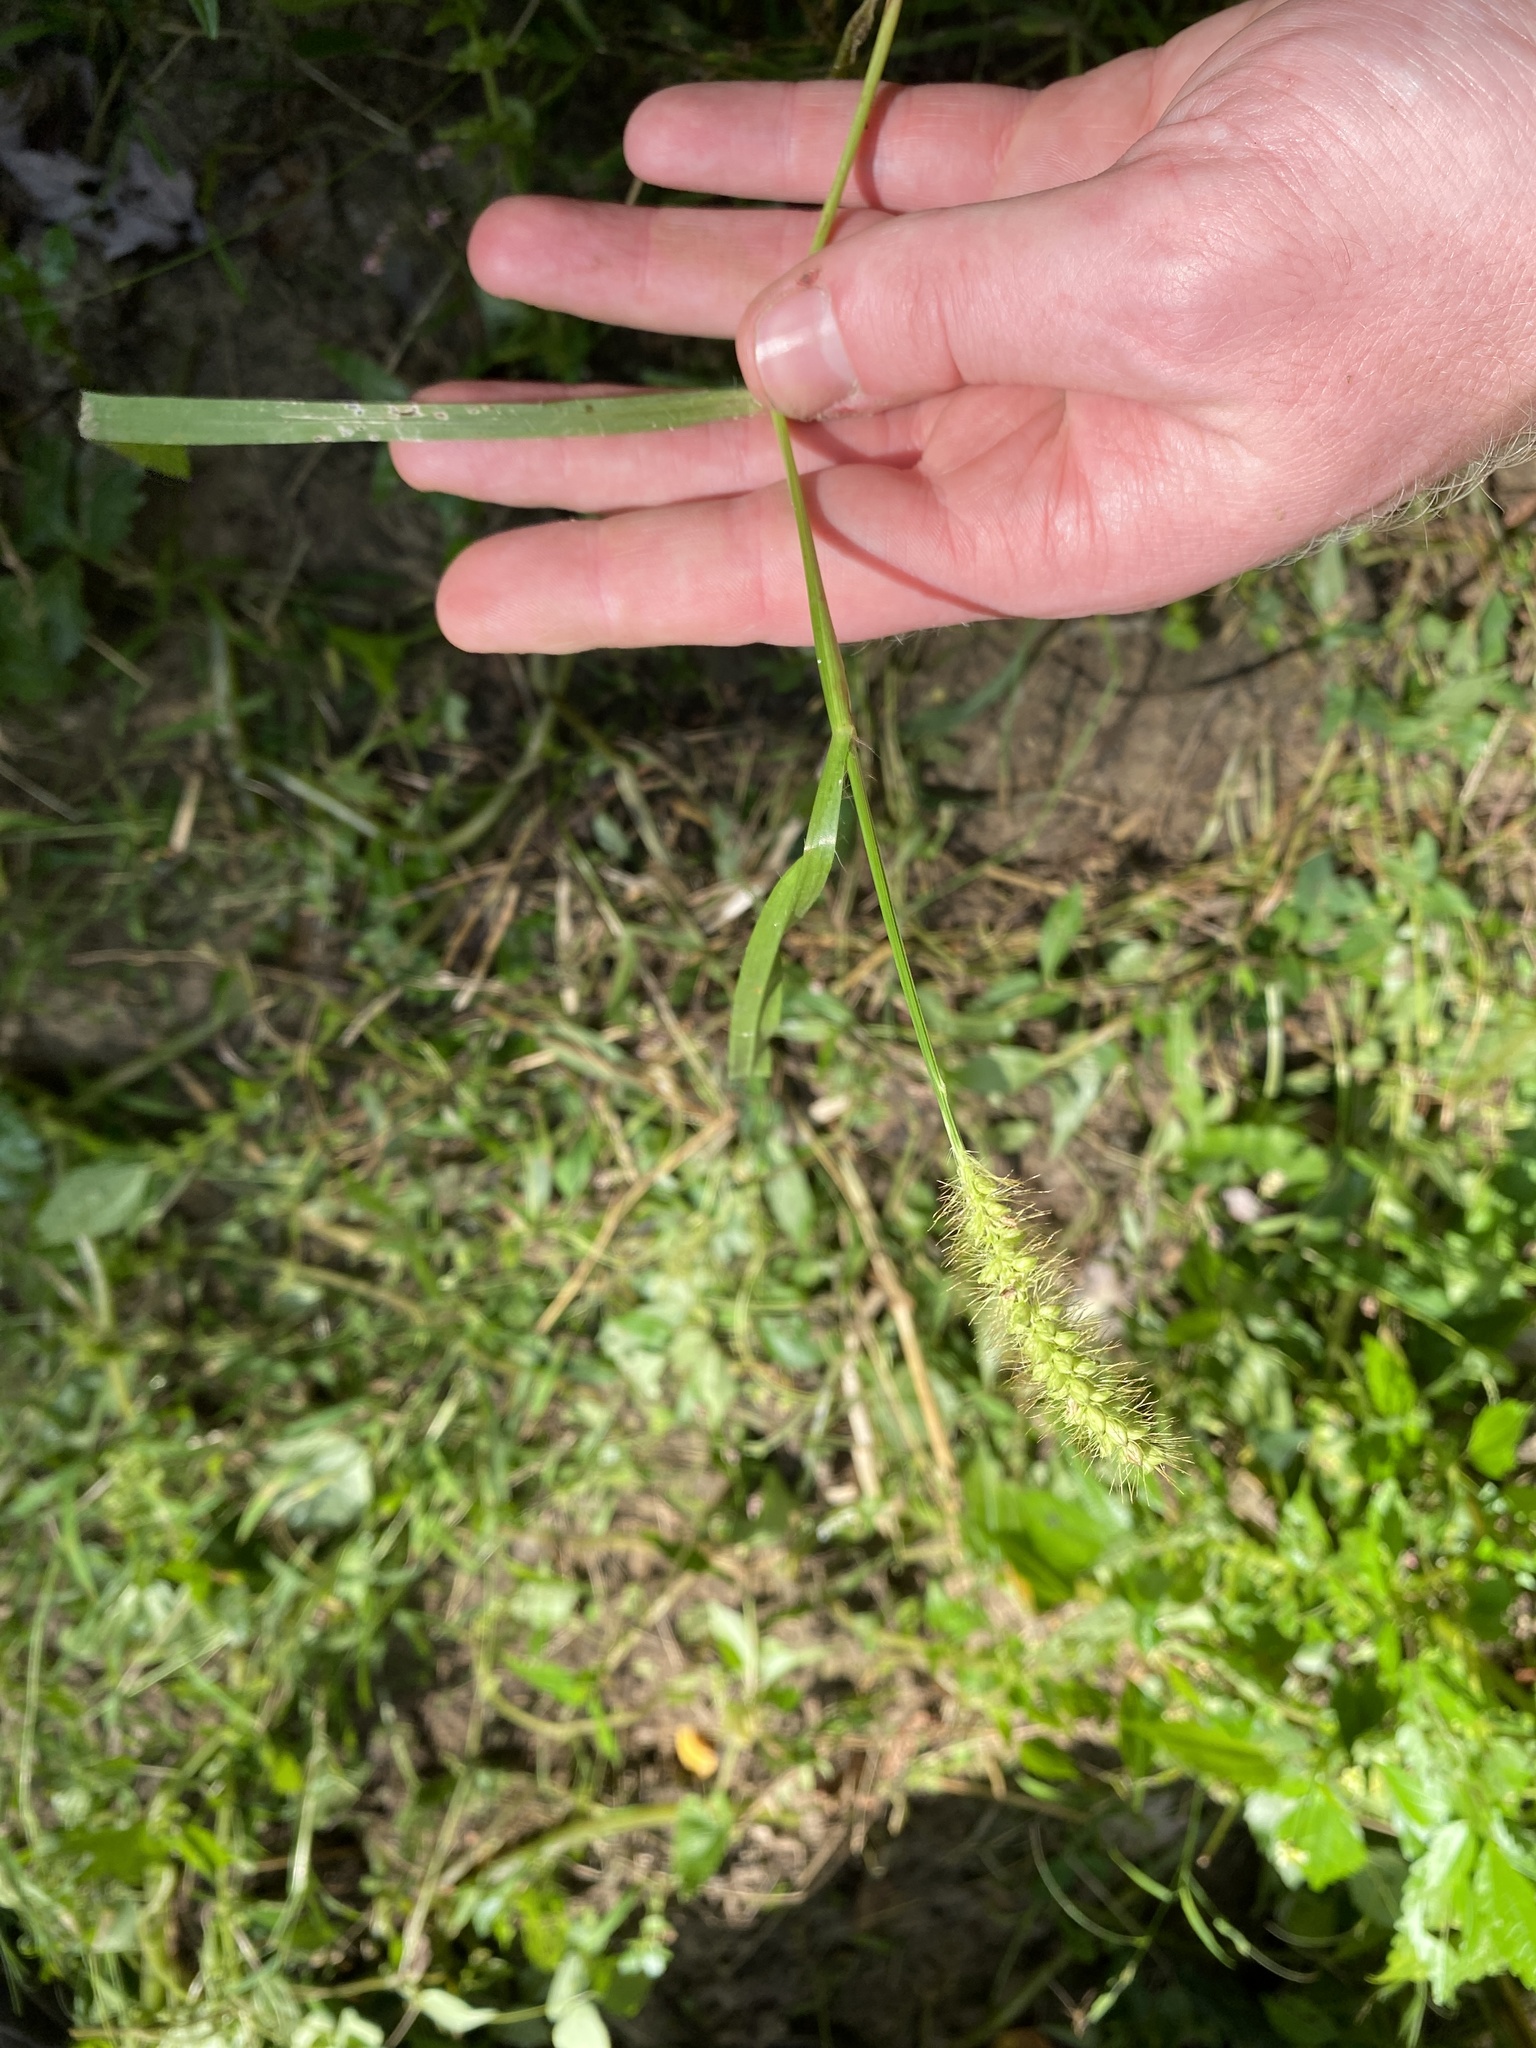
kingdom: Plantae
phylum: Tracheophyta
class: Liliopsida
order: Poales
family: Poaceae
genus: Setaria
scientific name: Setaria pumila
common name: Yellow bristle-grass
